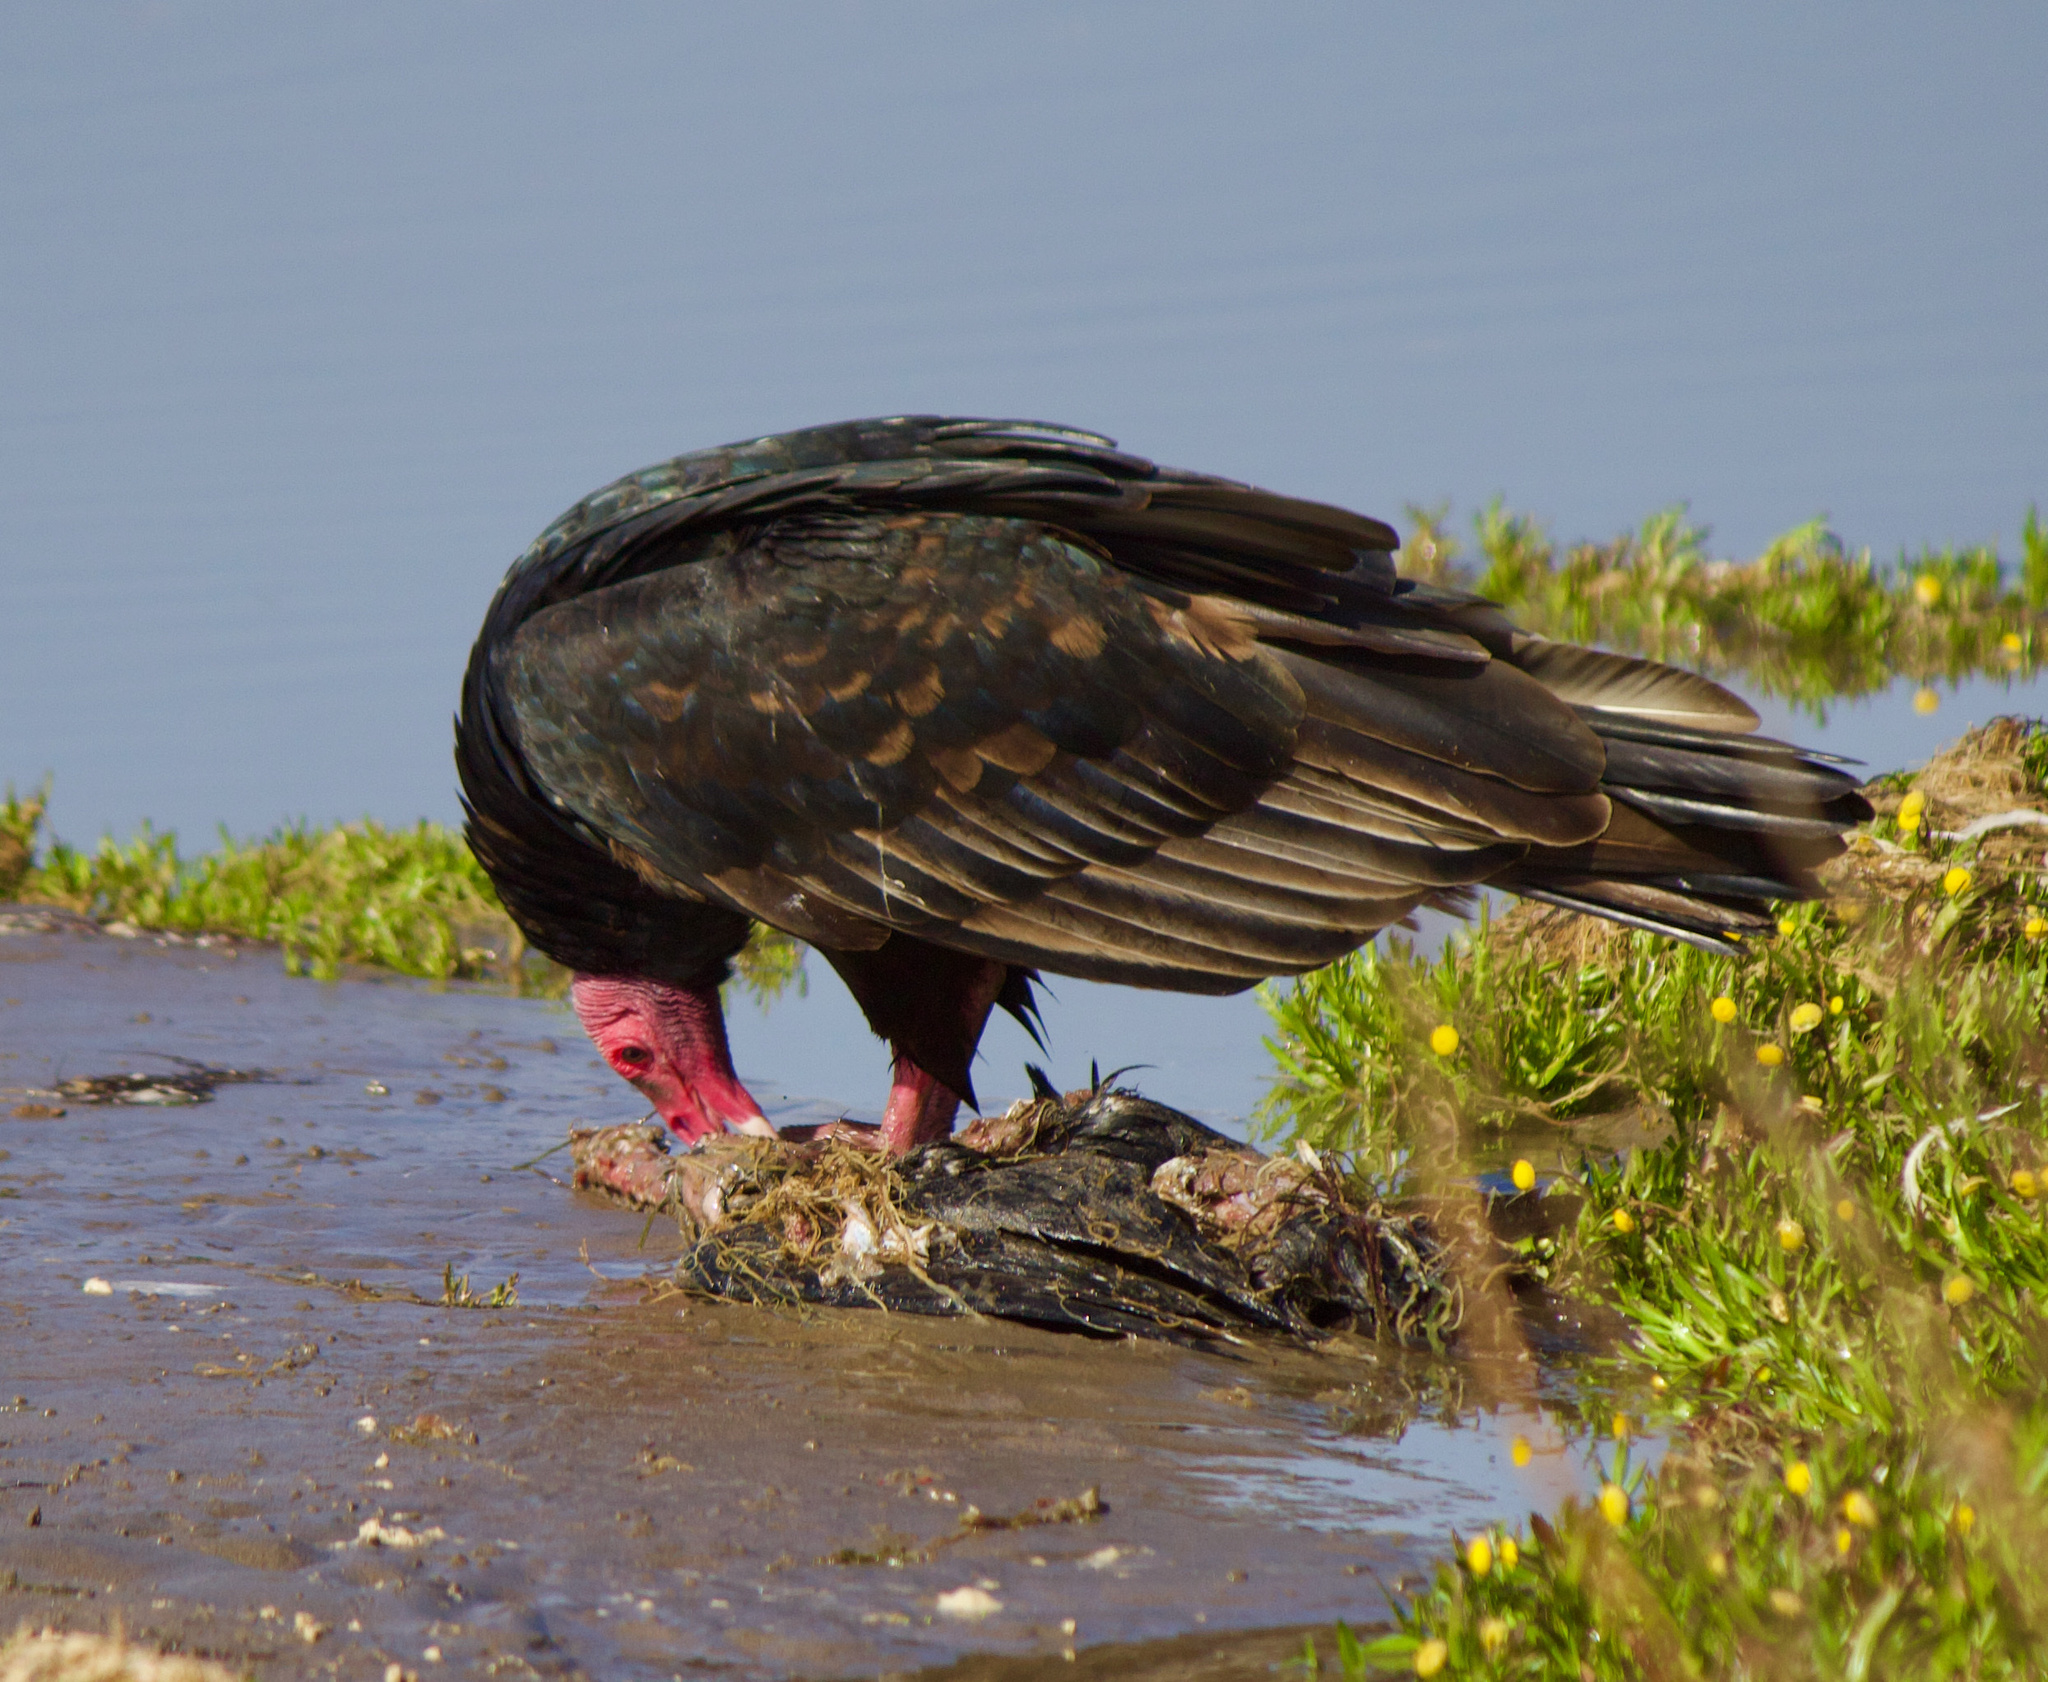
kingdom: Animalia
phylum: Chordata
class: Aves
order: Accipitriformes
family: Cathartidae
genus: Cathartes
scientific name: Cathartes aura
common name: Turkey vulture
